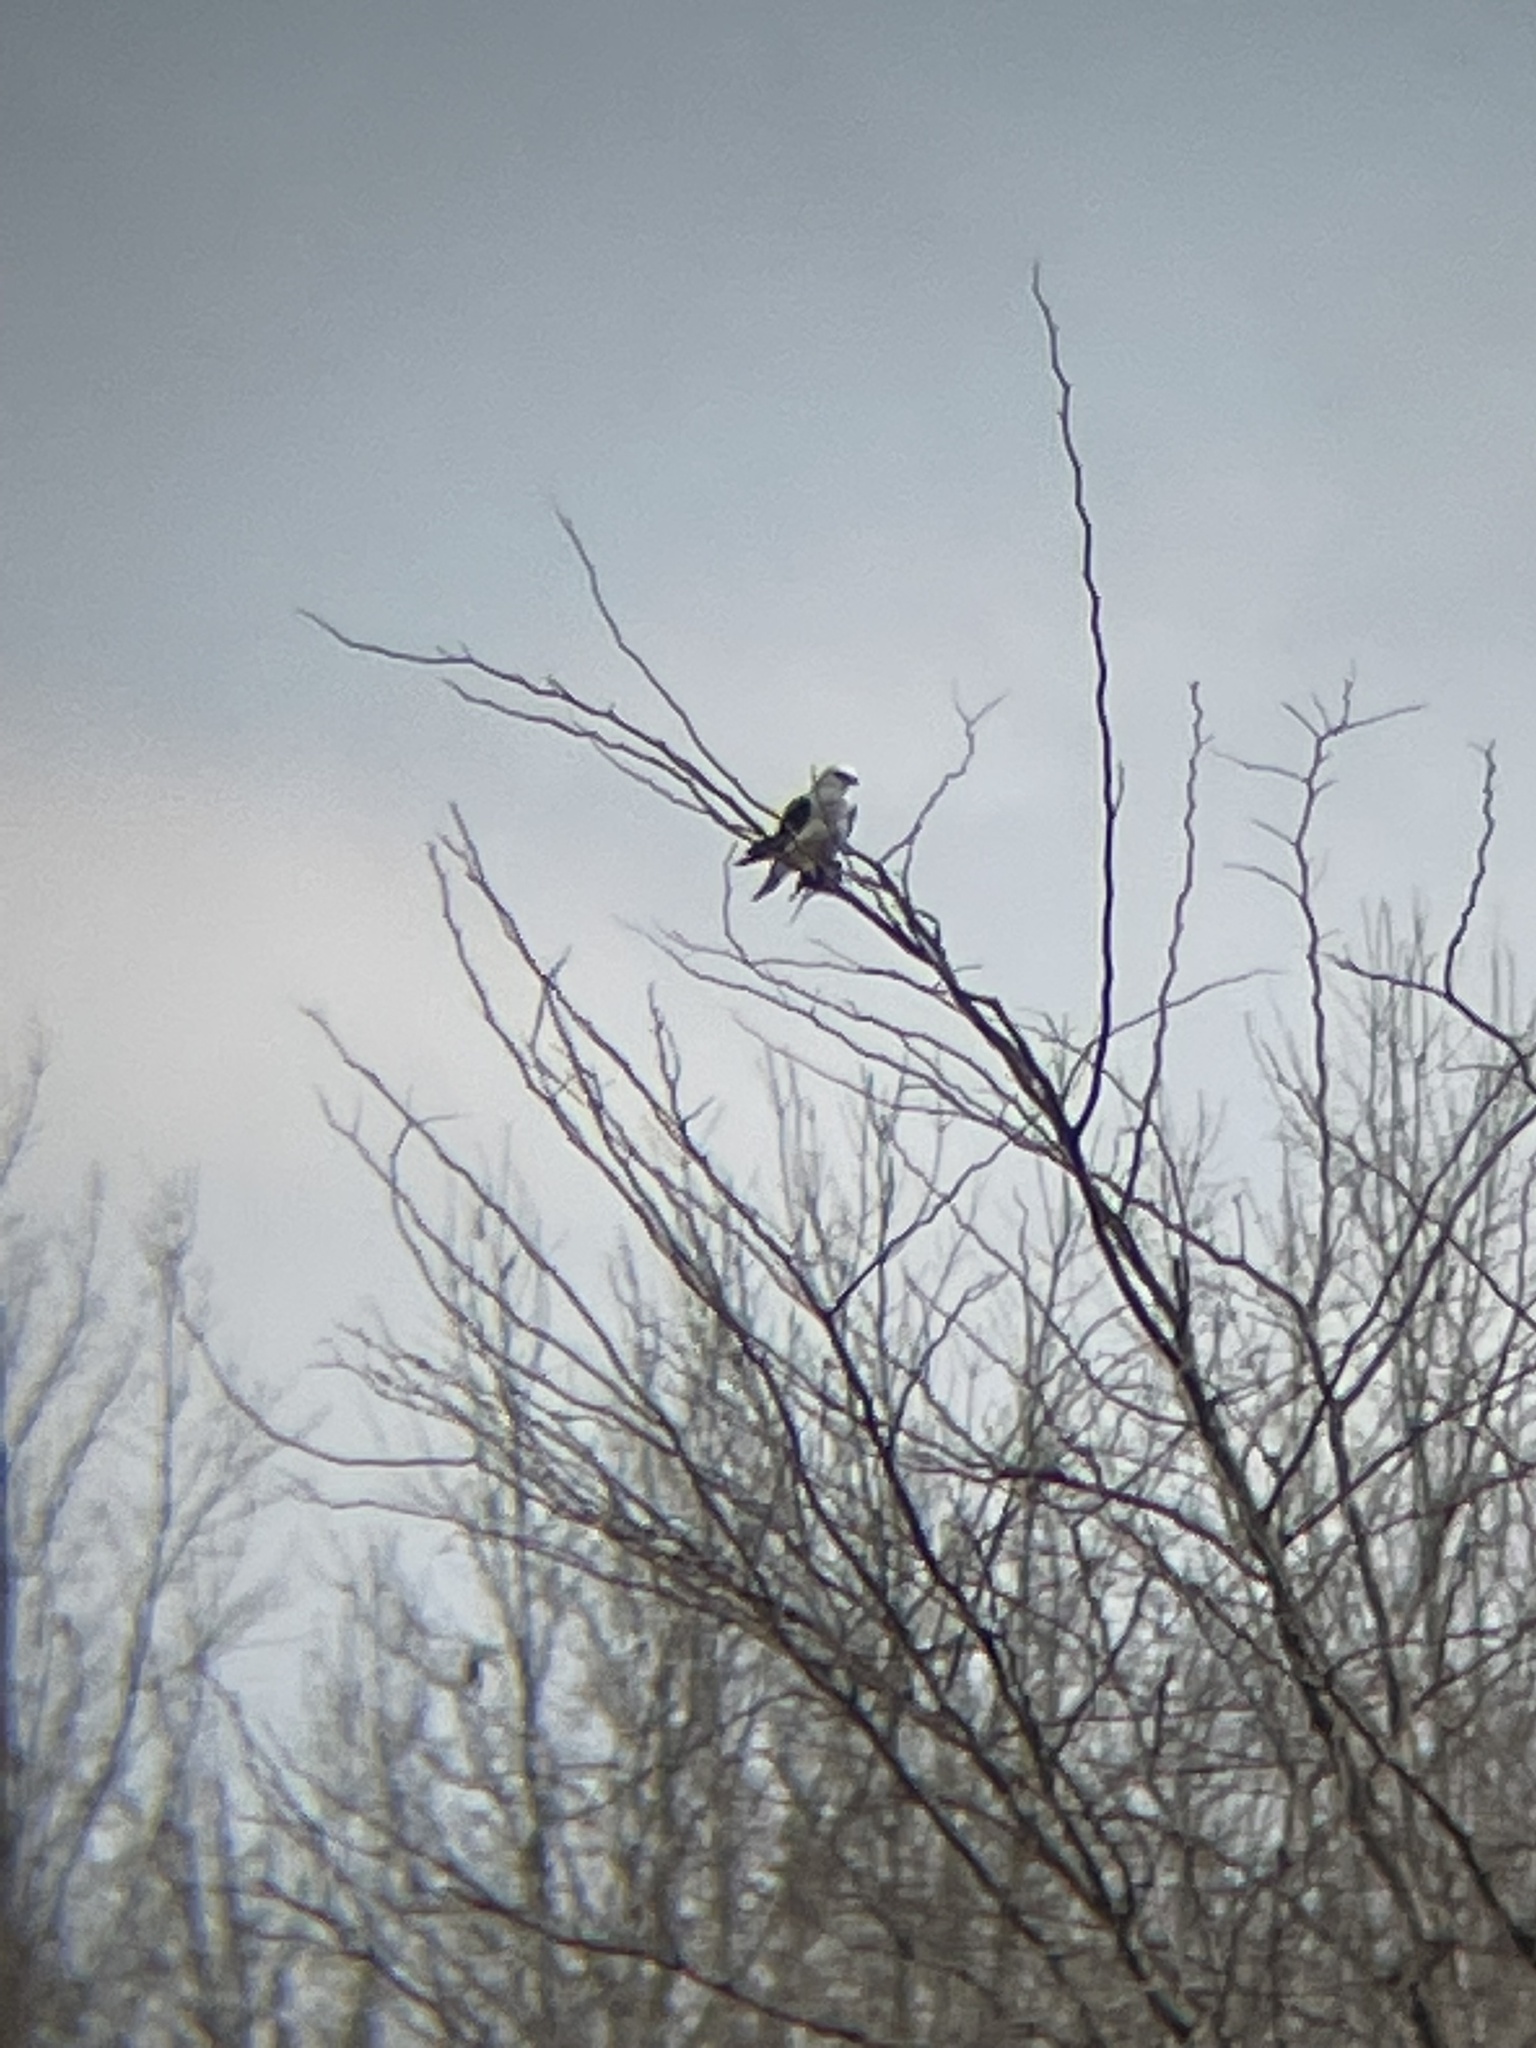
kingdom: Animalia
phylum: Chordata
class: Aves
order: Accipitriformes
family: Accipitridae
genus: Elanus
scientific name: Elanus leucurus
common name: White-tailed kite
